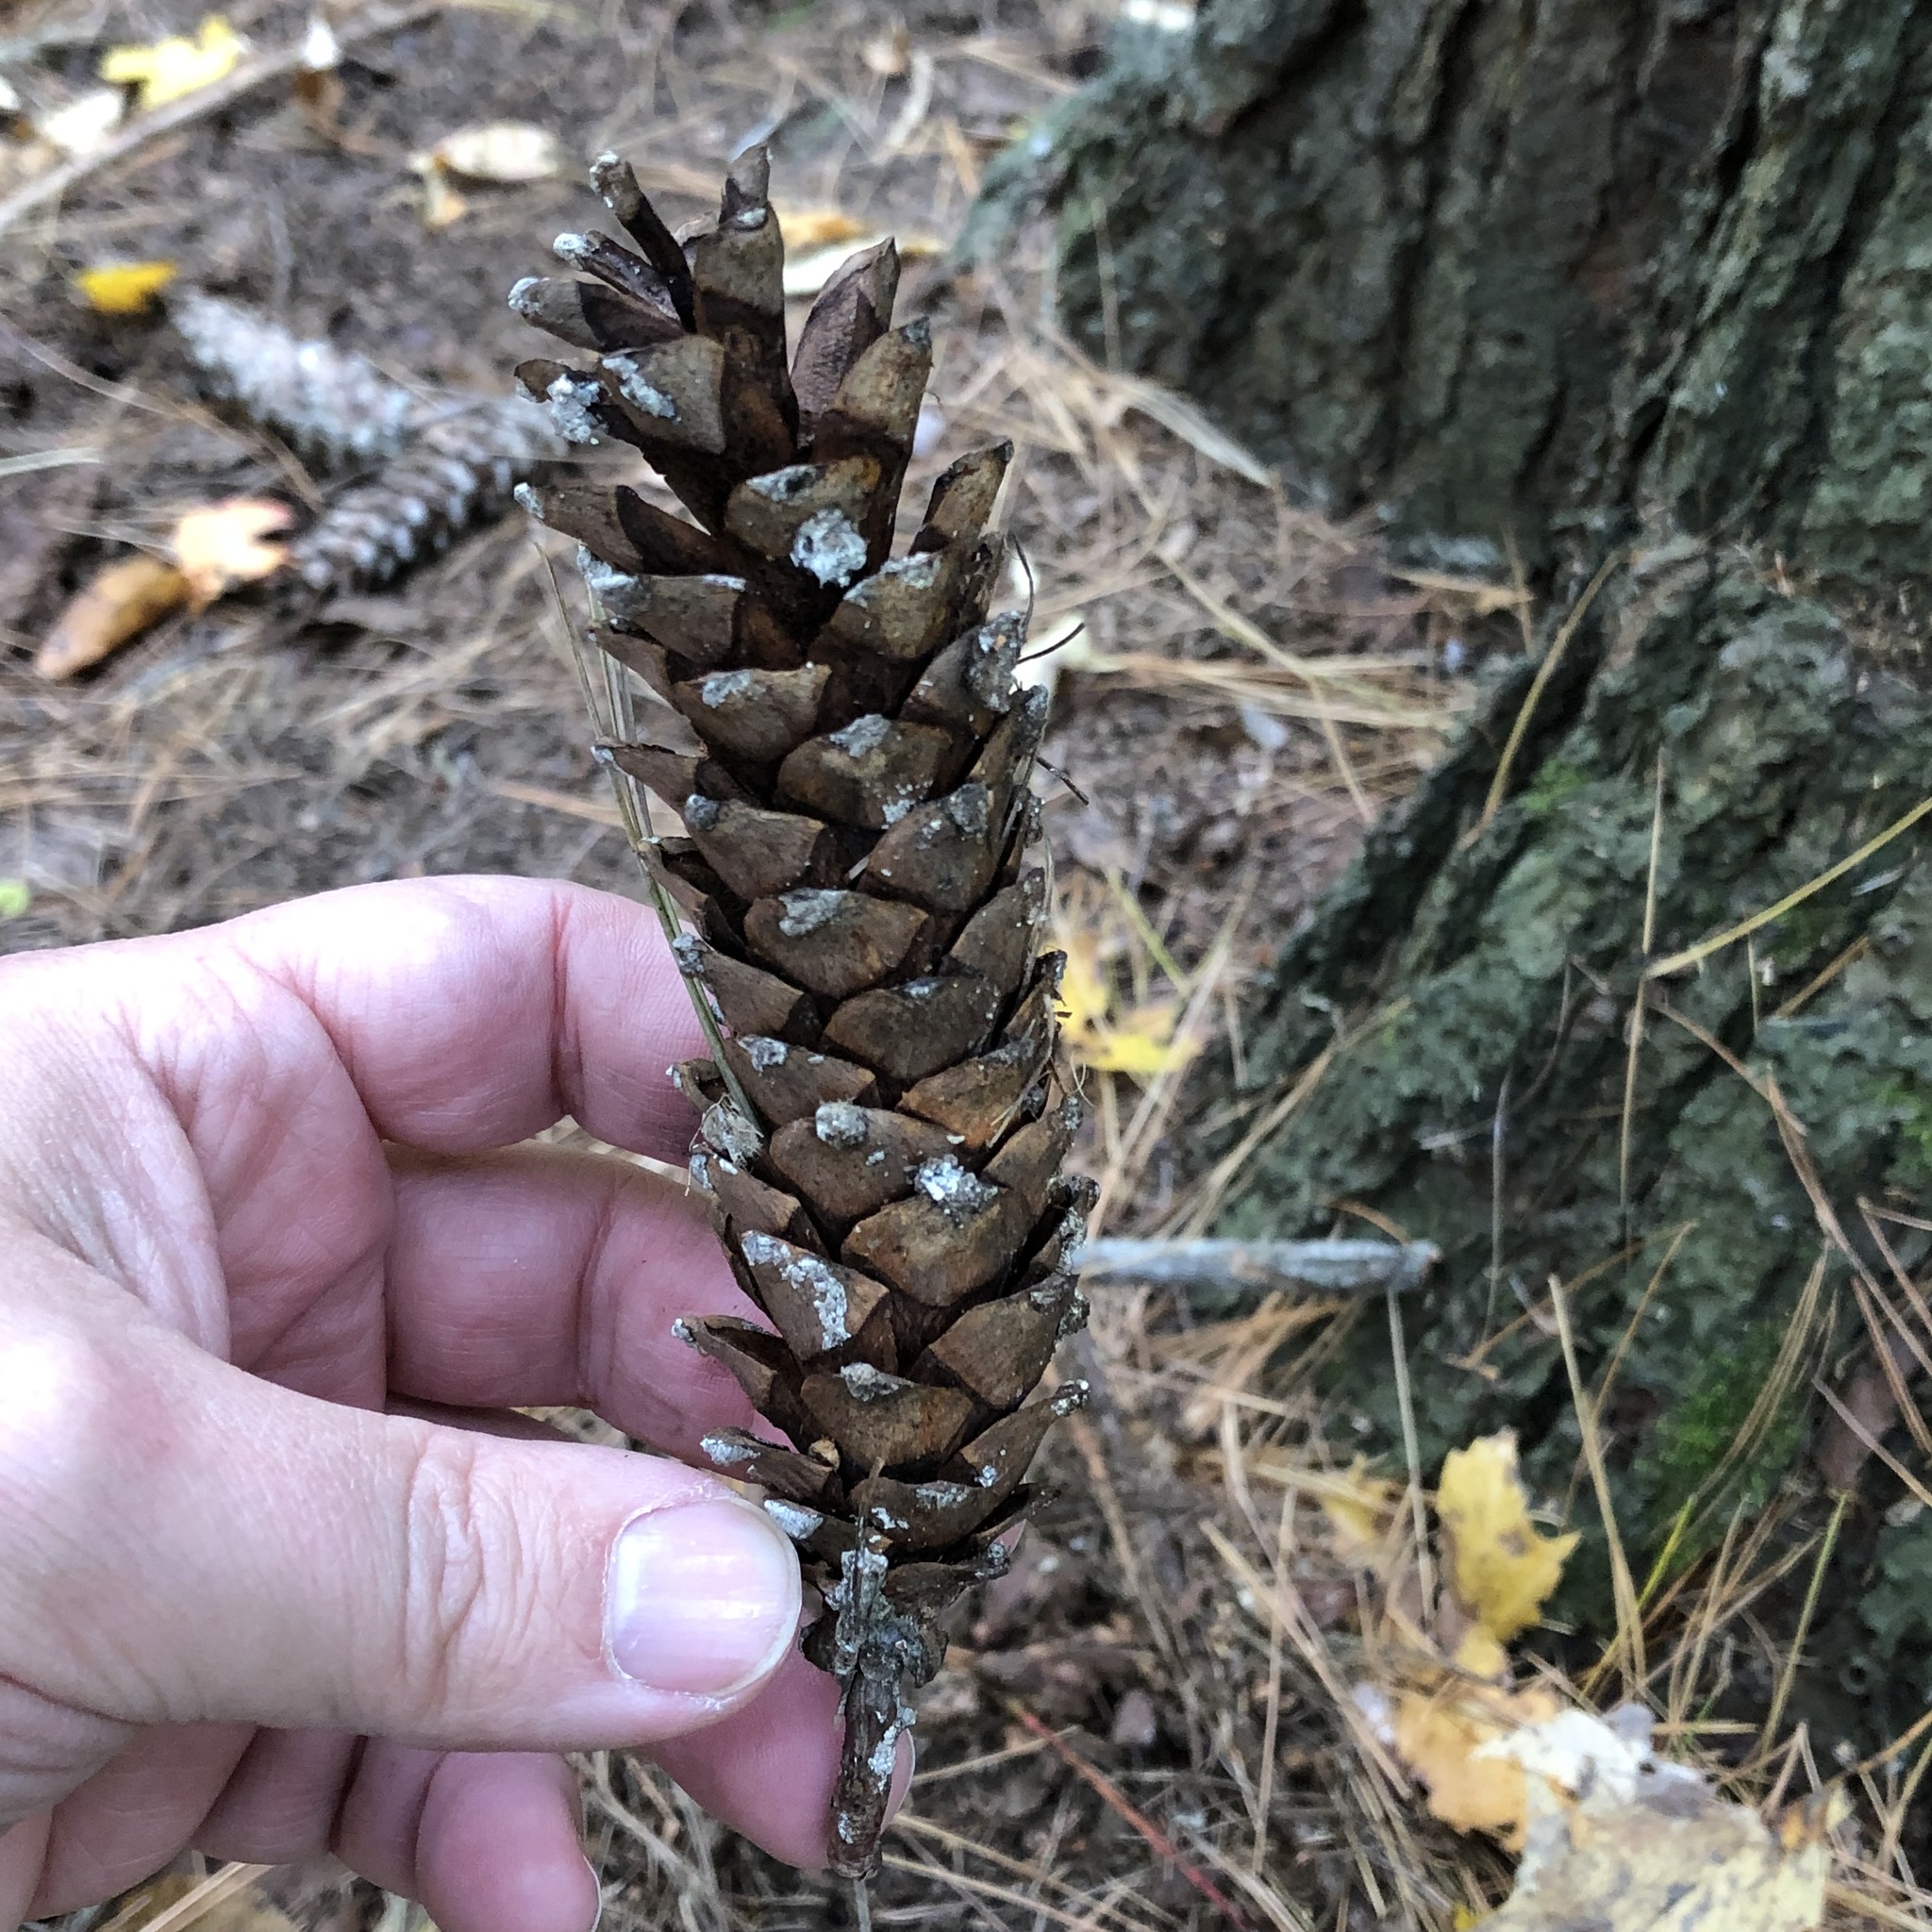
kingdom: Plantae
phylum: Tracheophyta
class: Pinopsida
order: Pinales
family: Pinaceae
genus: Pinus
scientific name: Pinus strobus
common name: Weymouth pine
